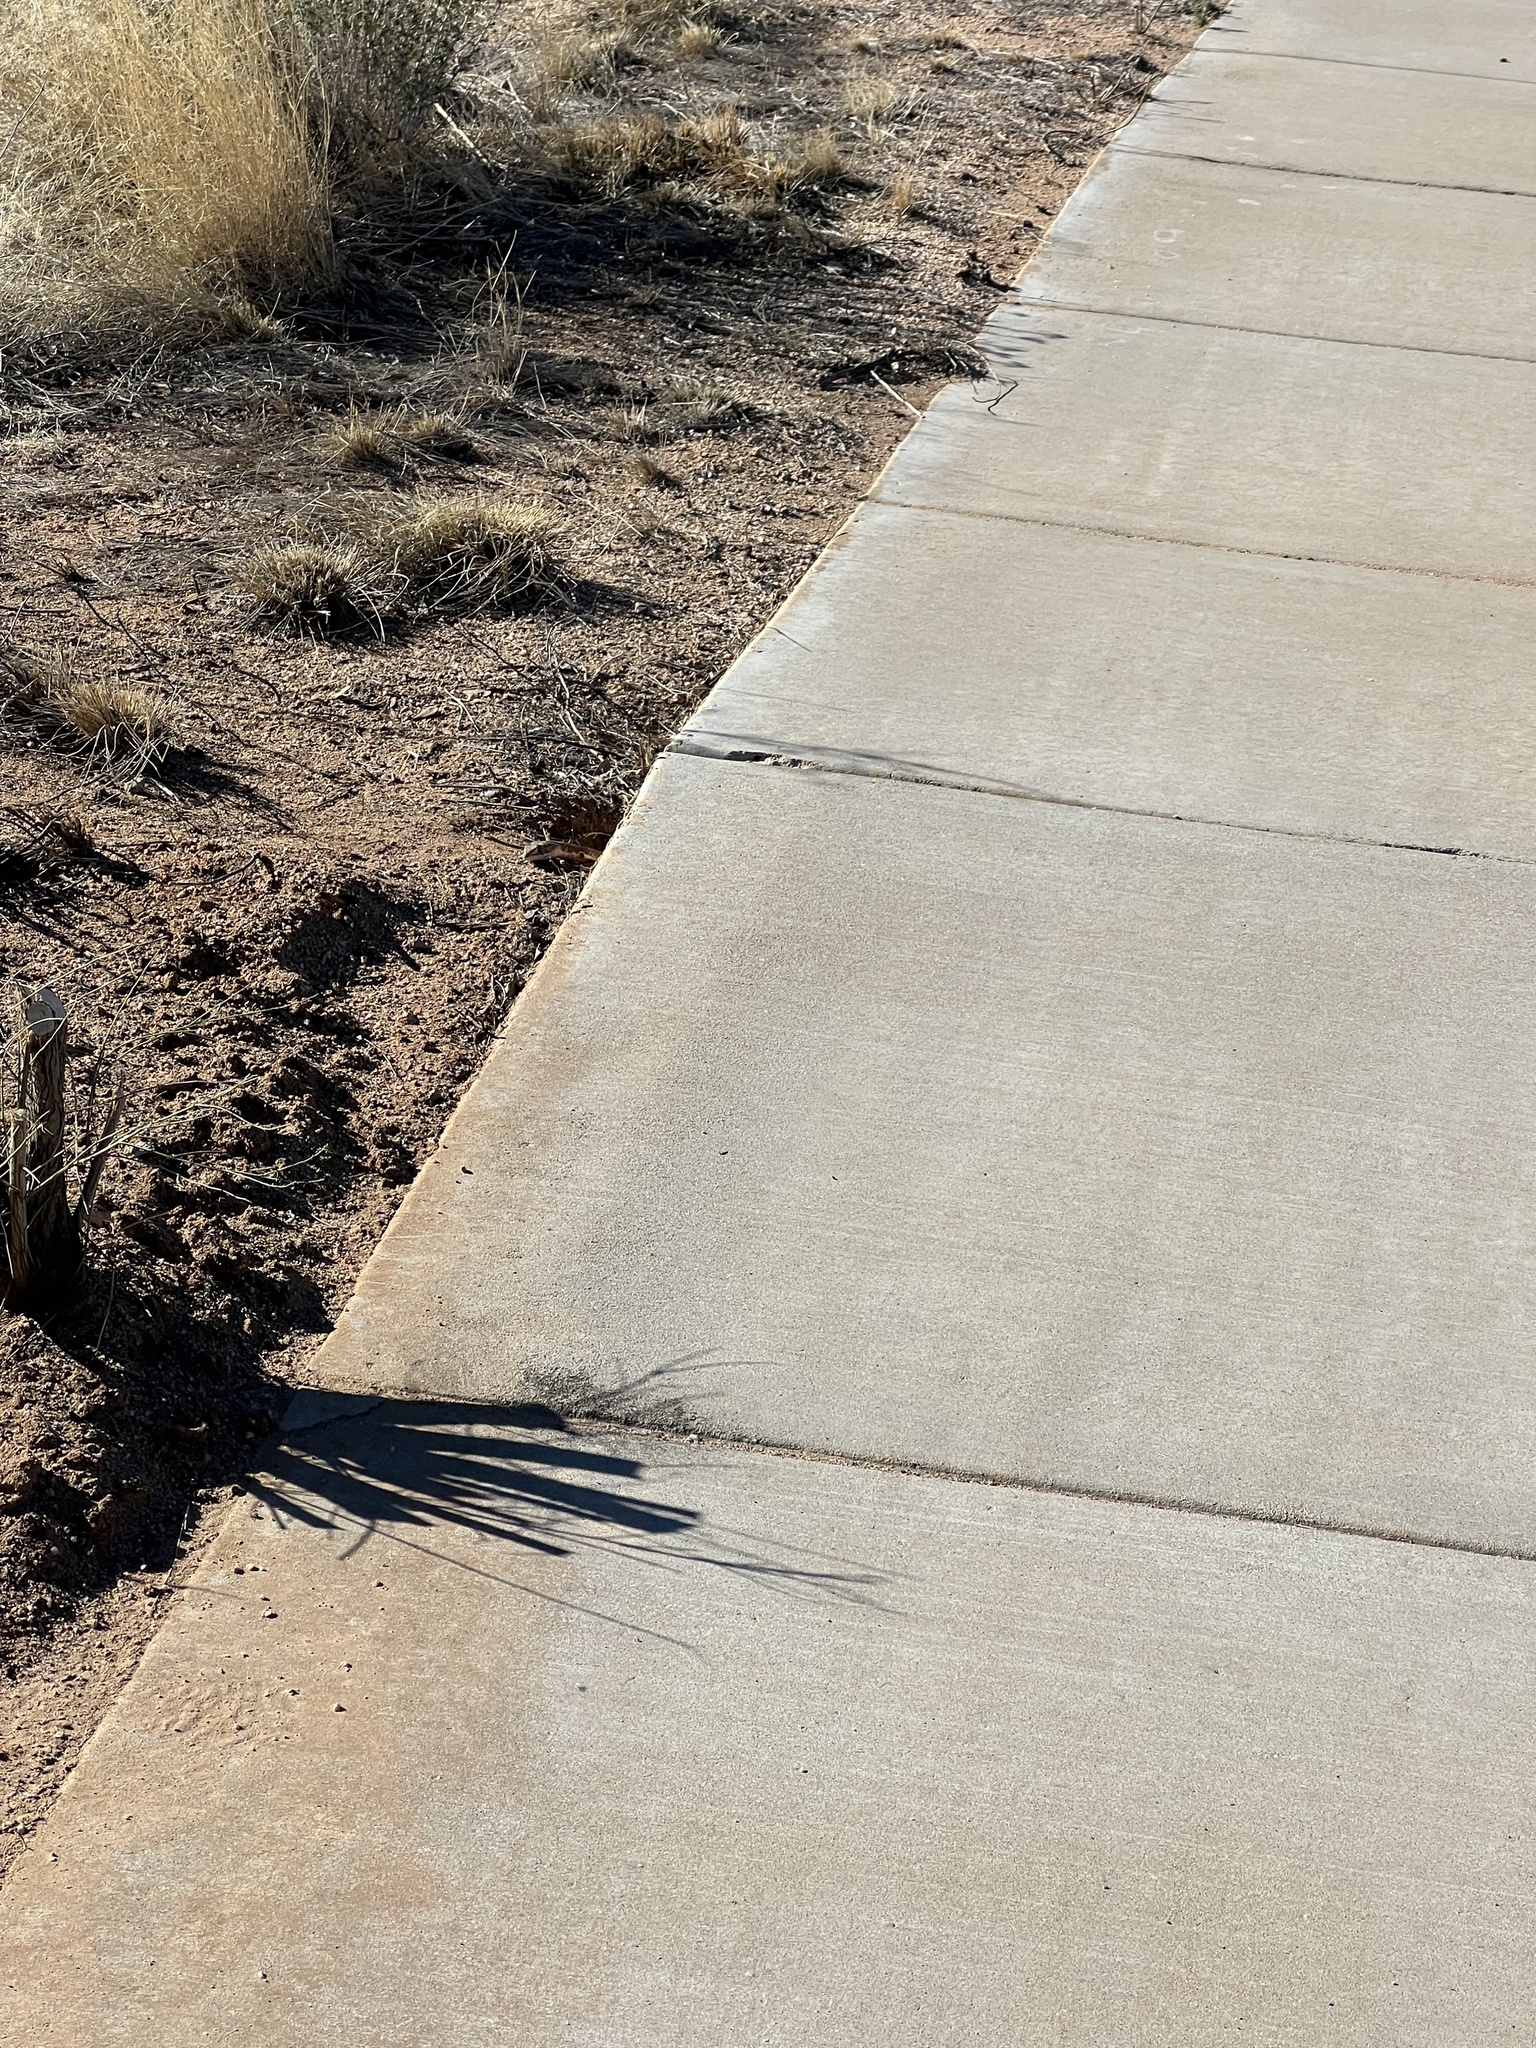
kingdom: Animalia
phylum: Chordata
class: Squamata
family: Colubridae
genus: Masticophis
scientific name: Masticophis flagellum
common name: Coachwhip
